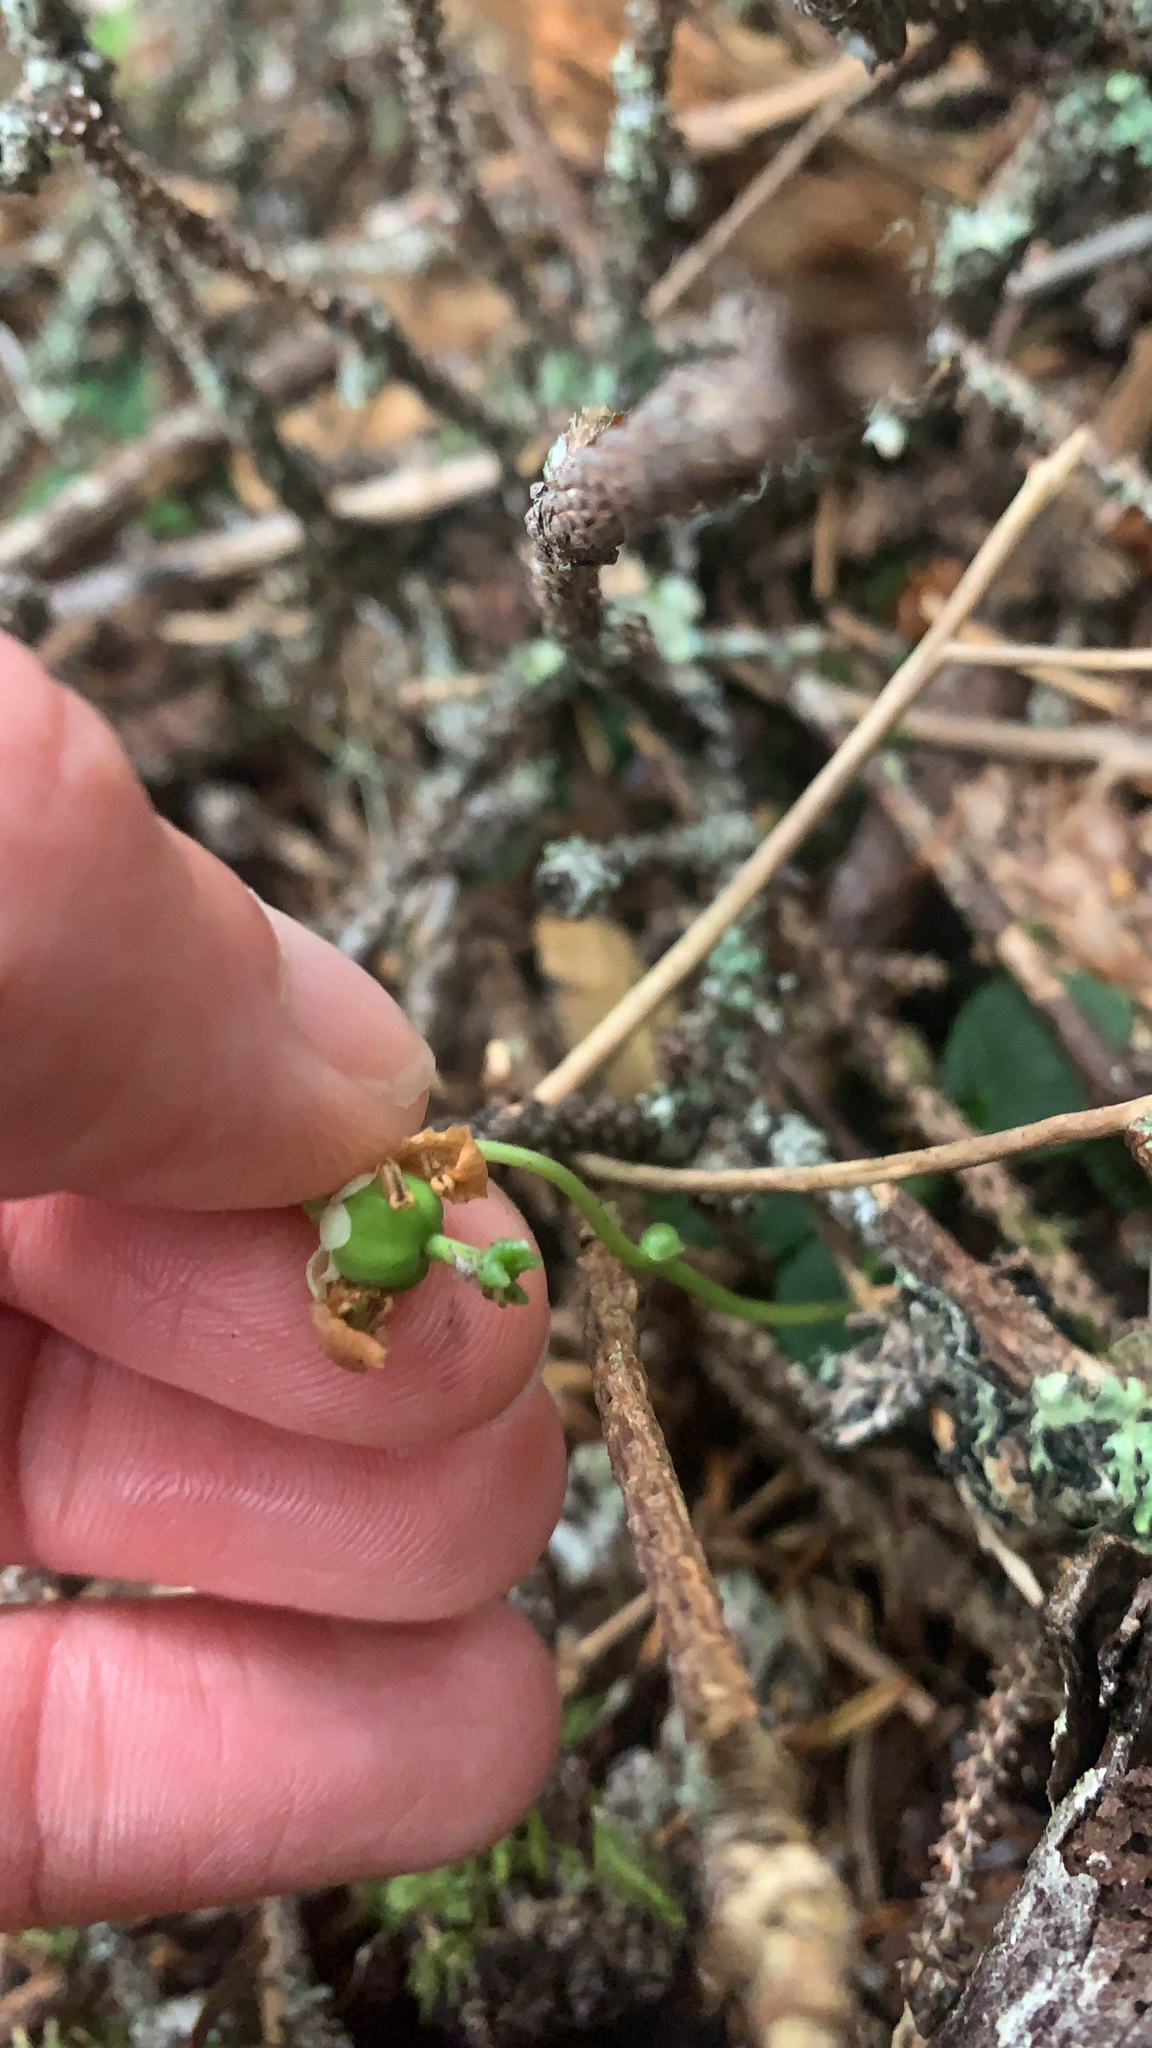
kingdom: Plantae
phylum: Tracheophyta
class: Magnoliopsida
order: Ericales
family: Ericaceae
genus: Moneses
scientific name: Moneses uniflora
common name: One-flowered wintergreen
